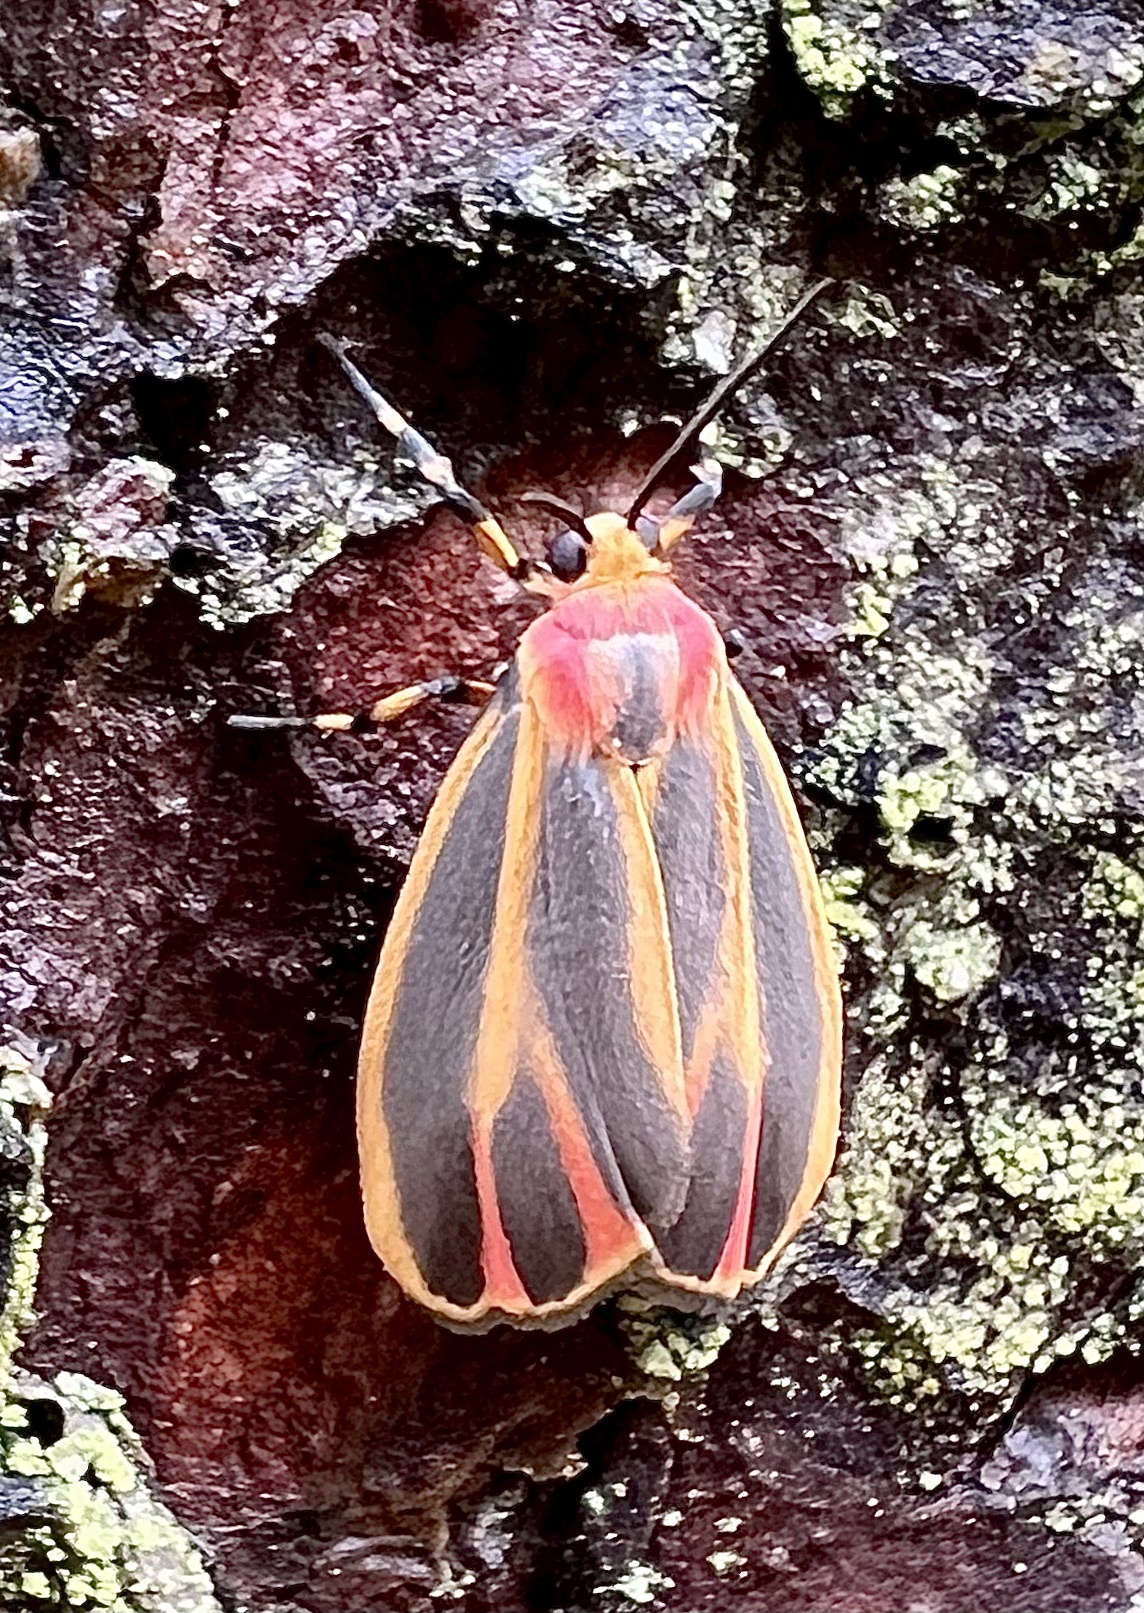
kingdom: Animalia
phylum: Arthropoda
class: Insecta
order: Lepidoptera
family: Erebidae
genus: Hypoprepia
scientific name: Hypoprepia fucosa
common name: Painted lichen moth
